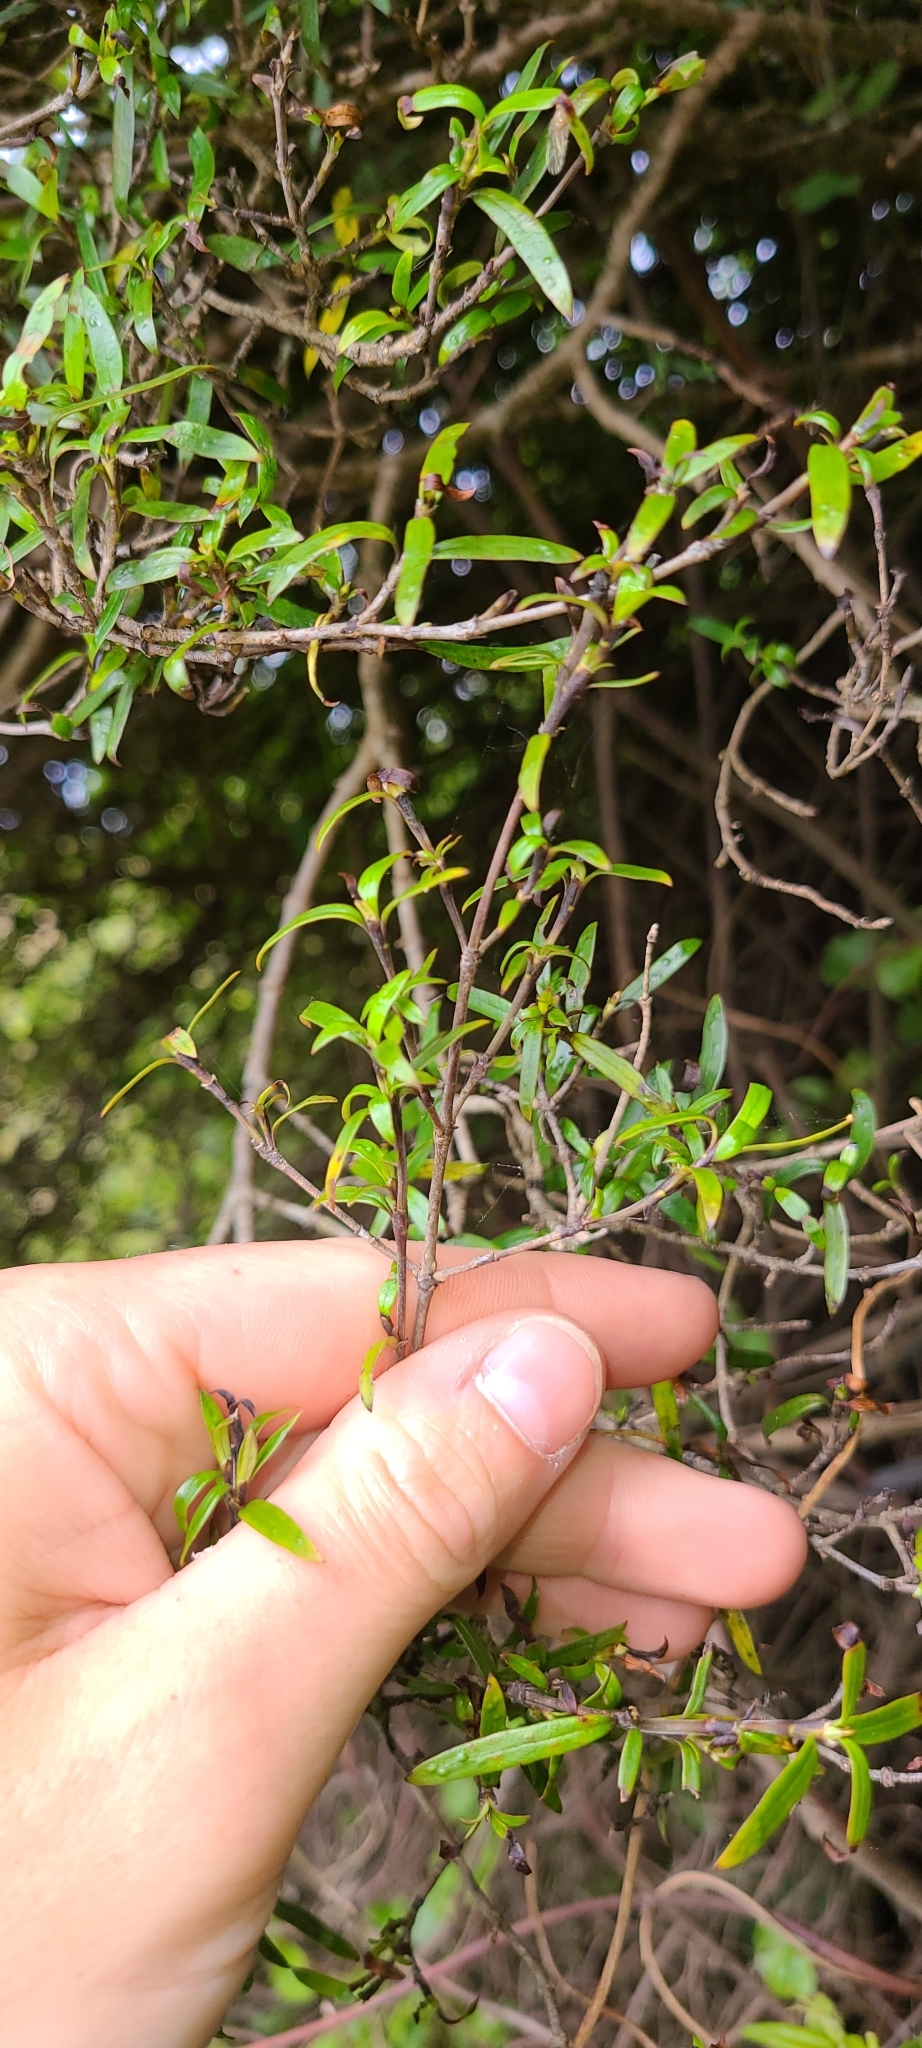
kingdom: Plantae
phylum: Tracheophyta
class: Magnoliopsida
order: Gentianales
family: Rubiaceae
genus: Coprosma
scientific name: Coprosma linariifolia
